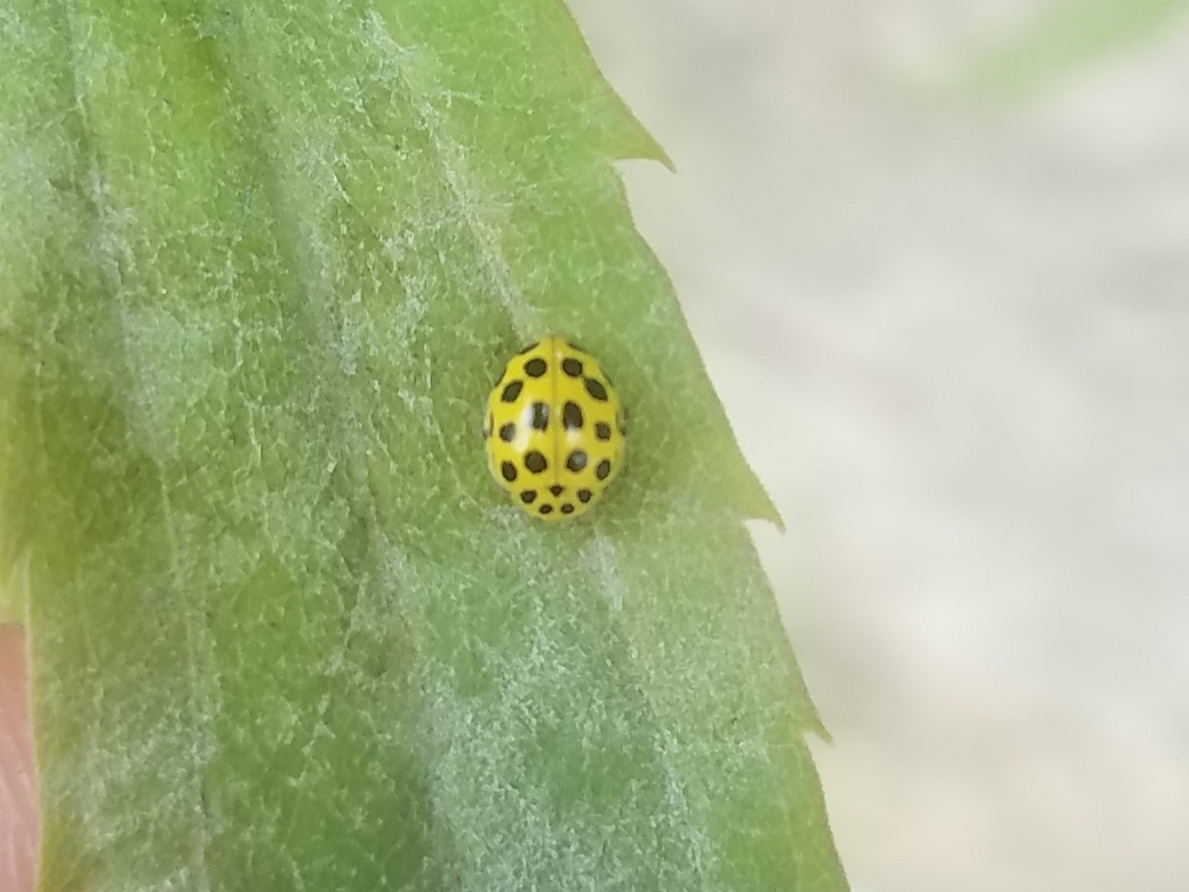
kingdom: Animalia
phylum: Arthropoda
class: Insecta
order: Coleoptera
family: Coccinellidae
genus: Psyllobora
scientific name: Psyllobora vigintiduopunctata
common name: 22-spot ladybird
